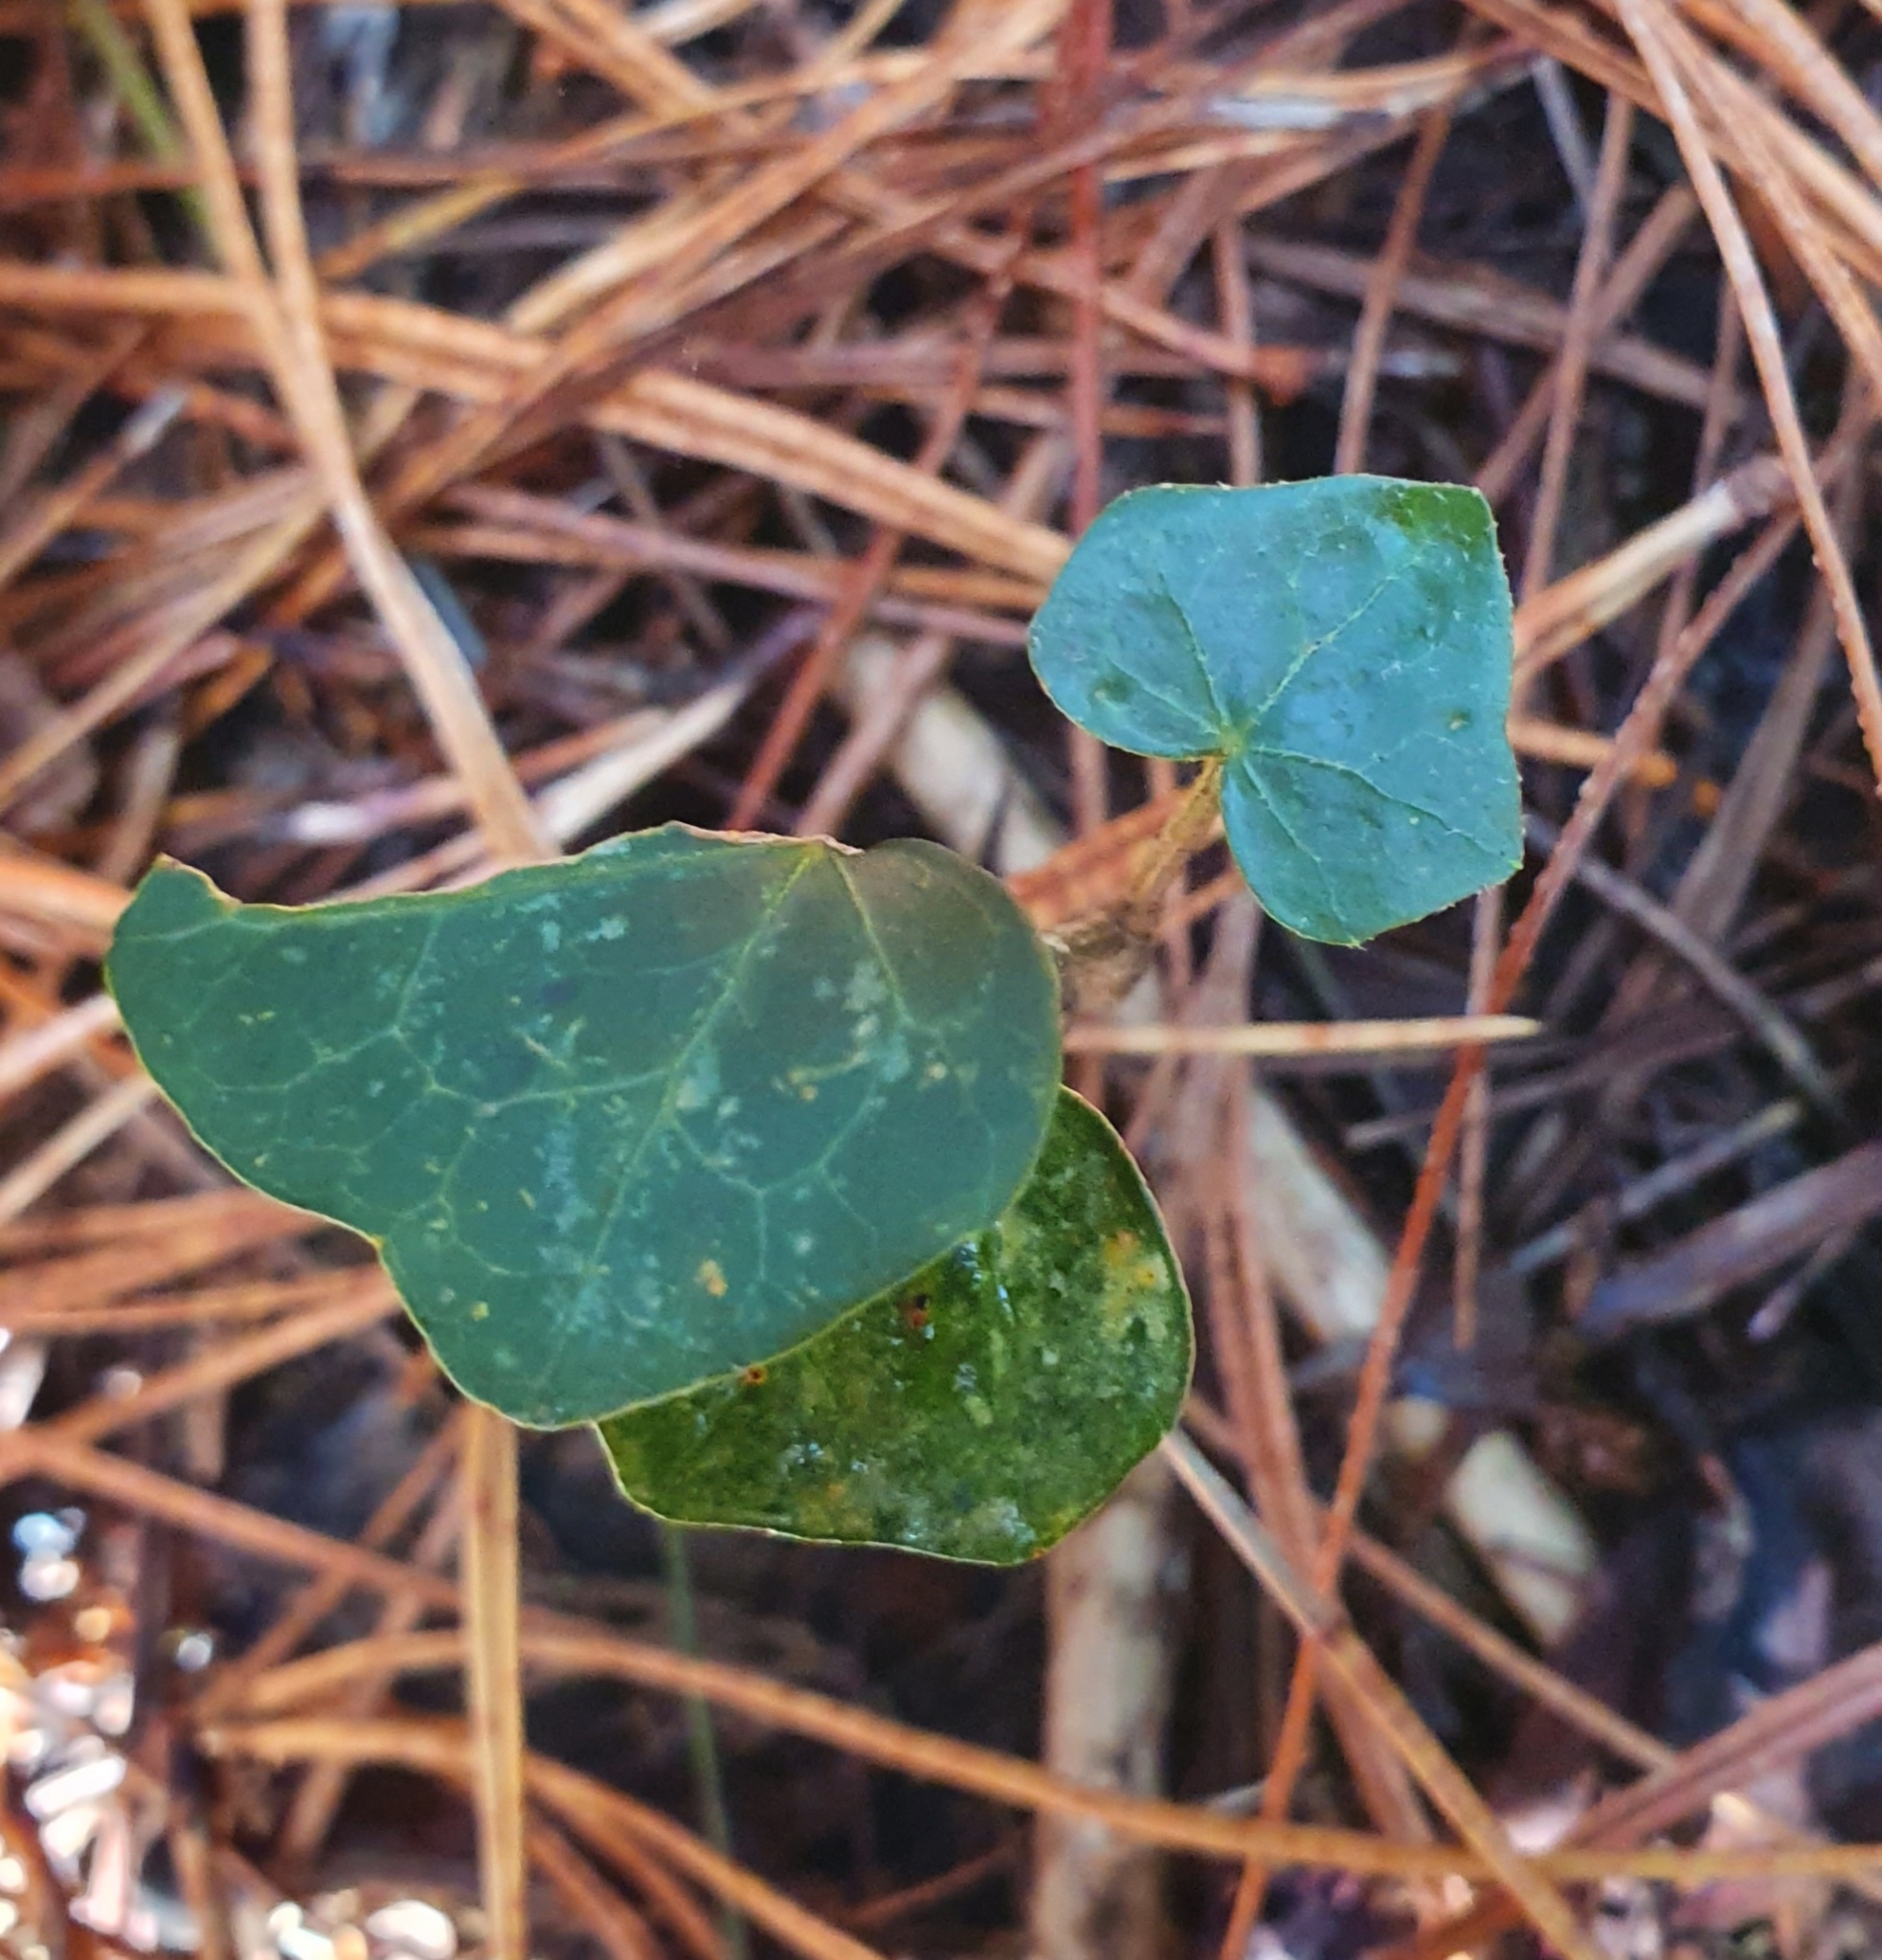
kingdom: Plantae
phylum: Tracheophyta
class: Magnoliopsida
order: Apiales
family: Araliaceae
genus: Hedera
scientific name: Hedera helix
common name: Ivy
